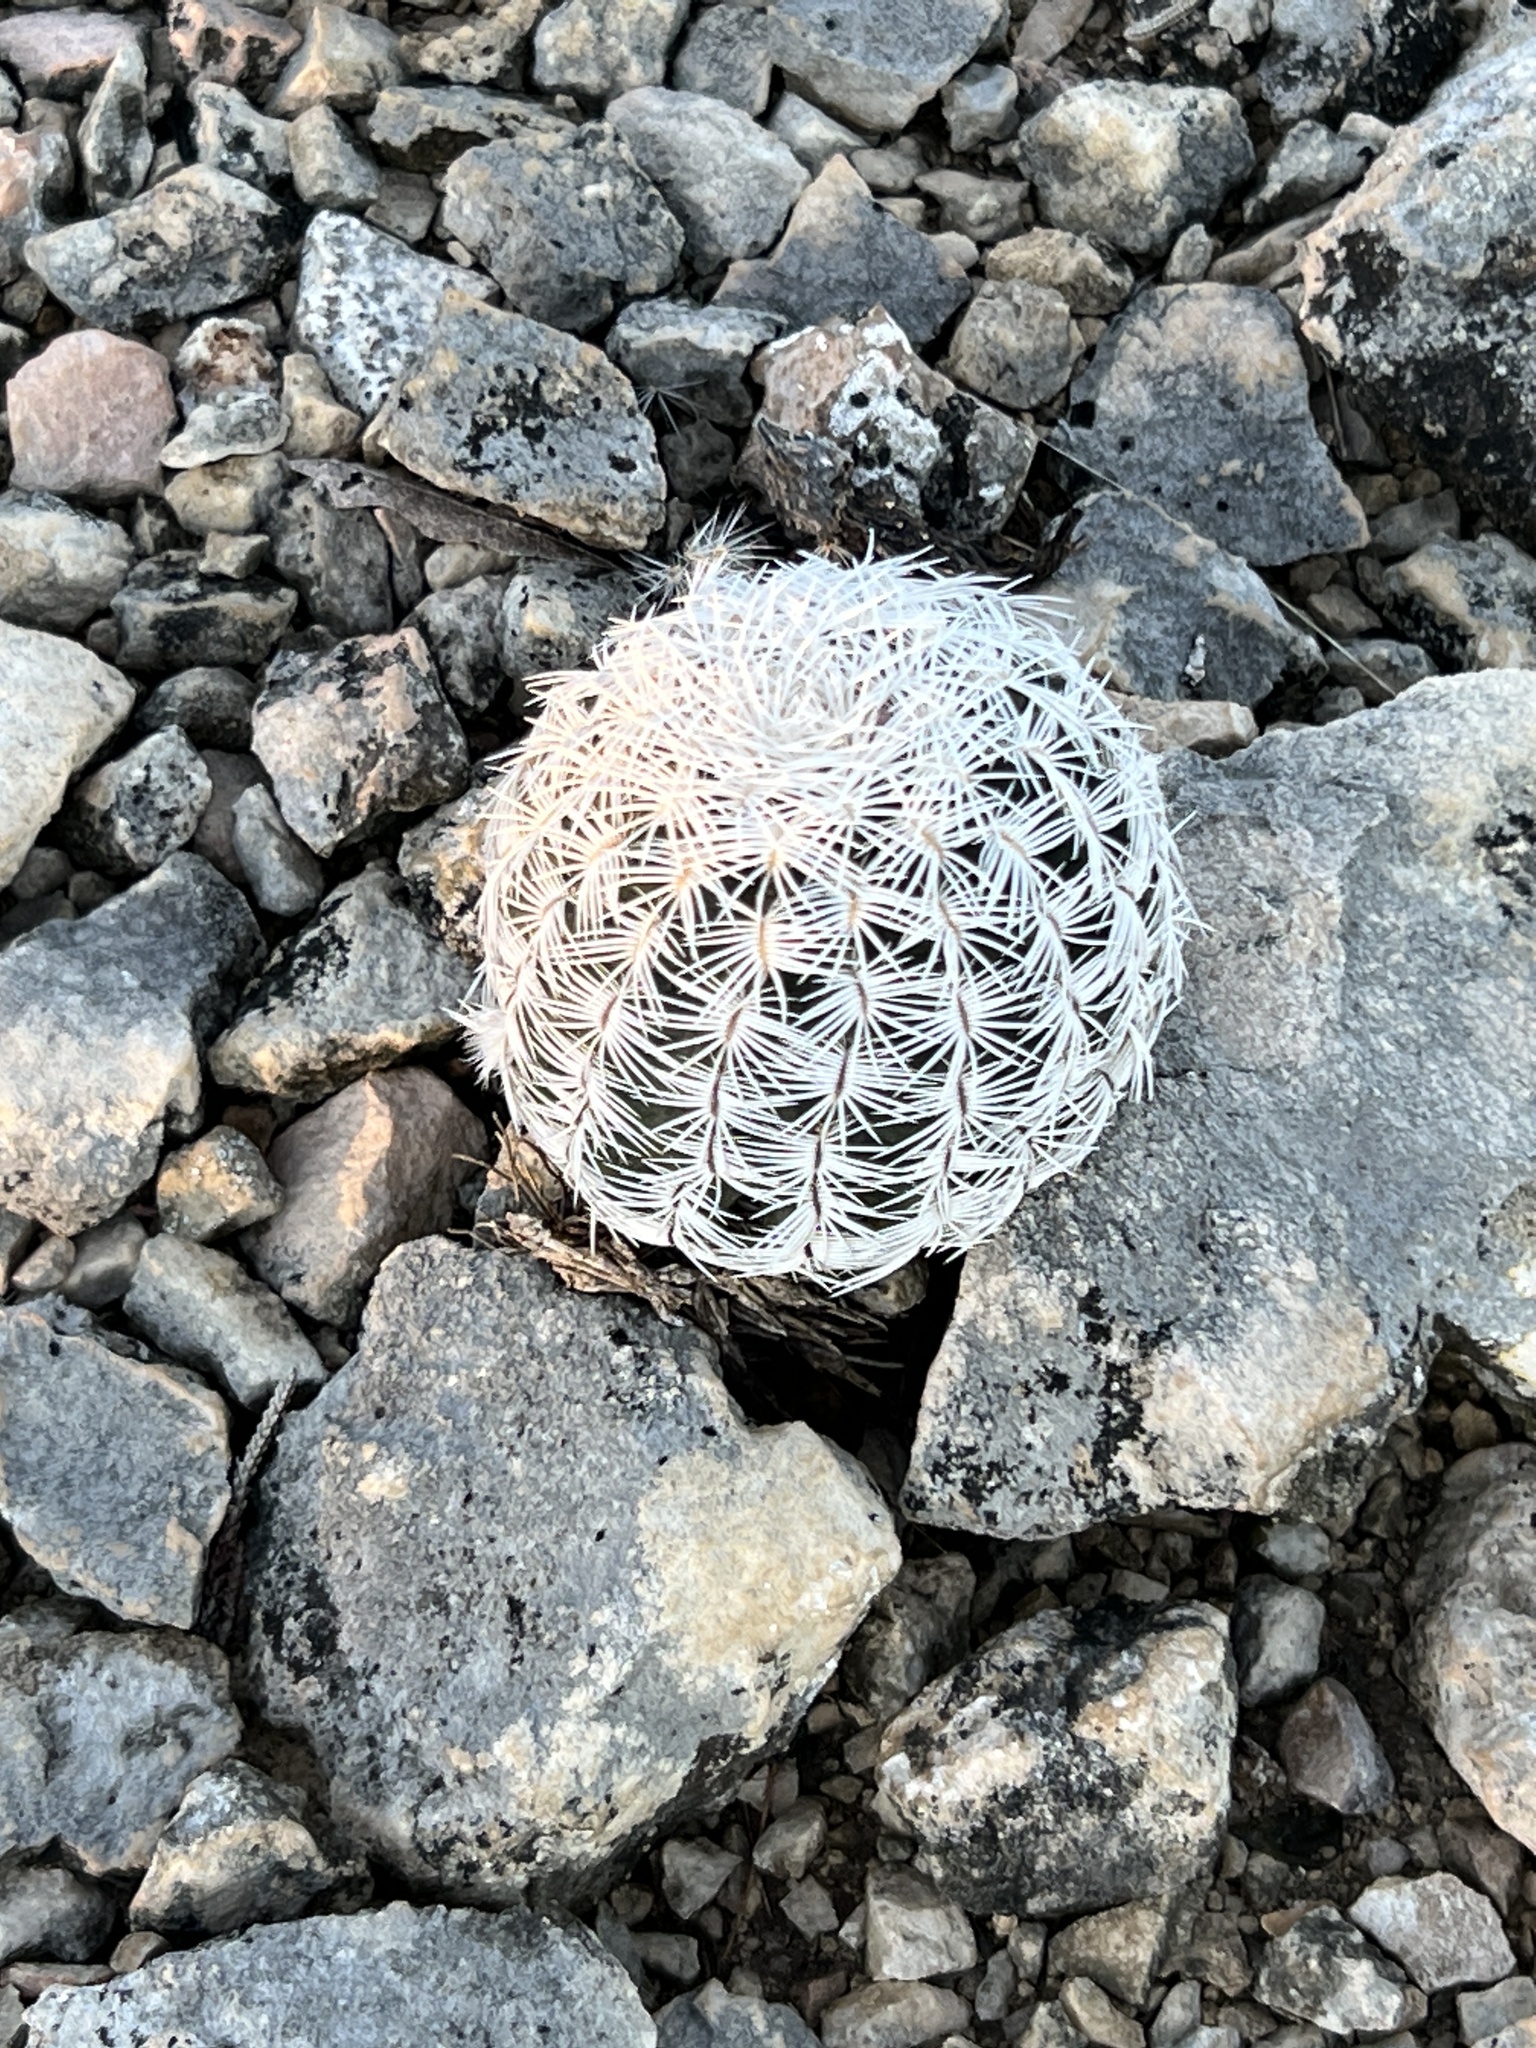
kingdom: Plantae
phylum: Tracheophyta
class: Magnoliopsida
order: Caryophyllales
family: Cactaceae
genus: Echinocereus
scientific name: Echinocereus reichenbachii
